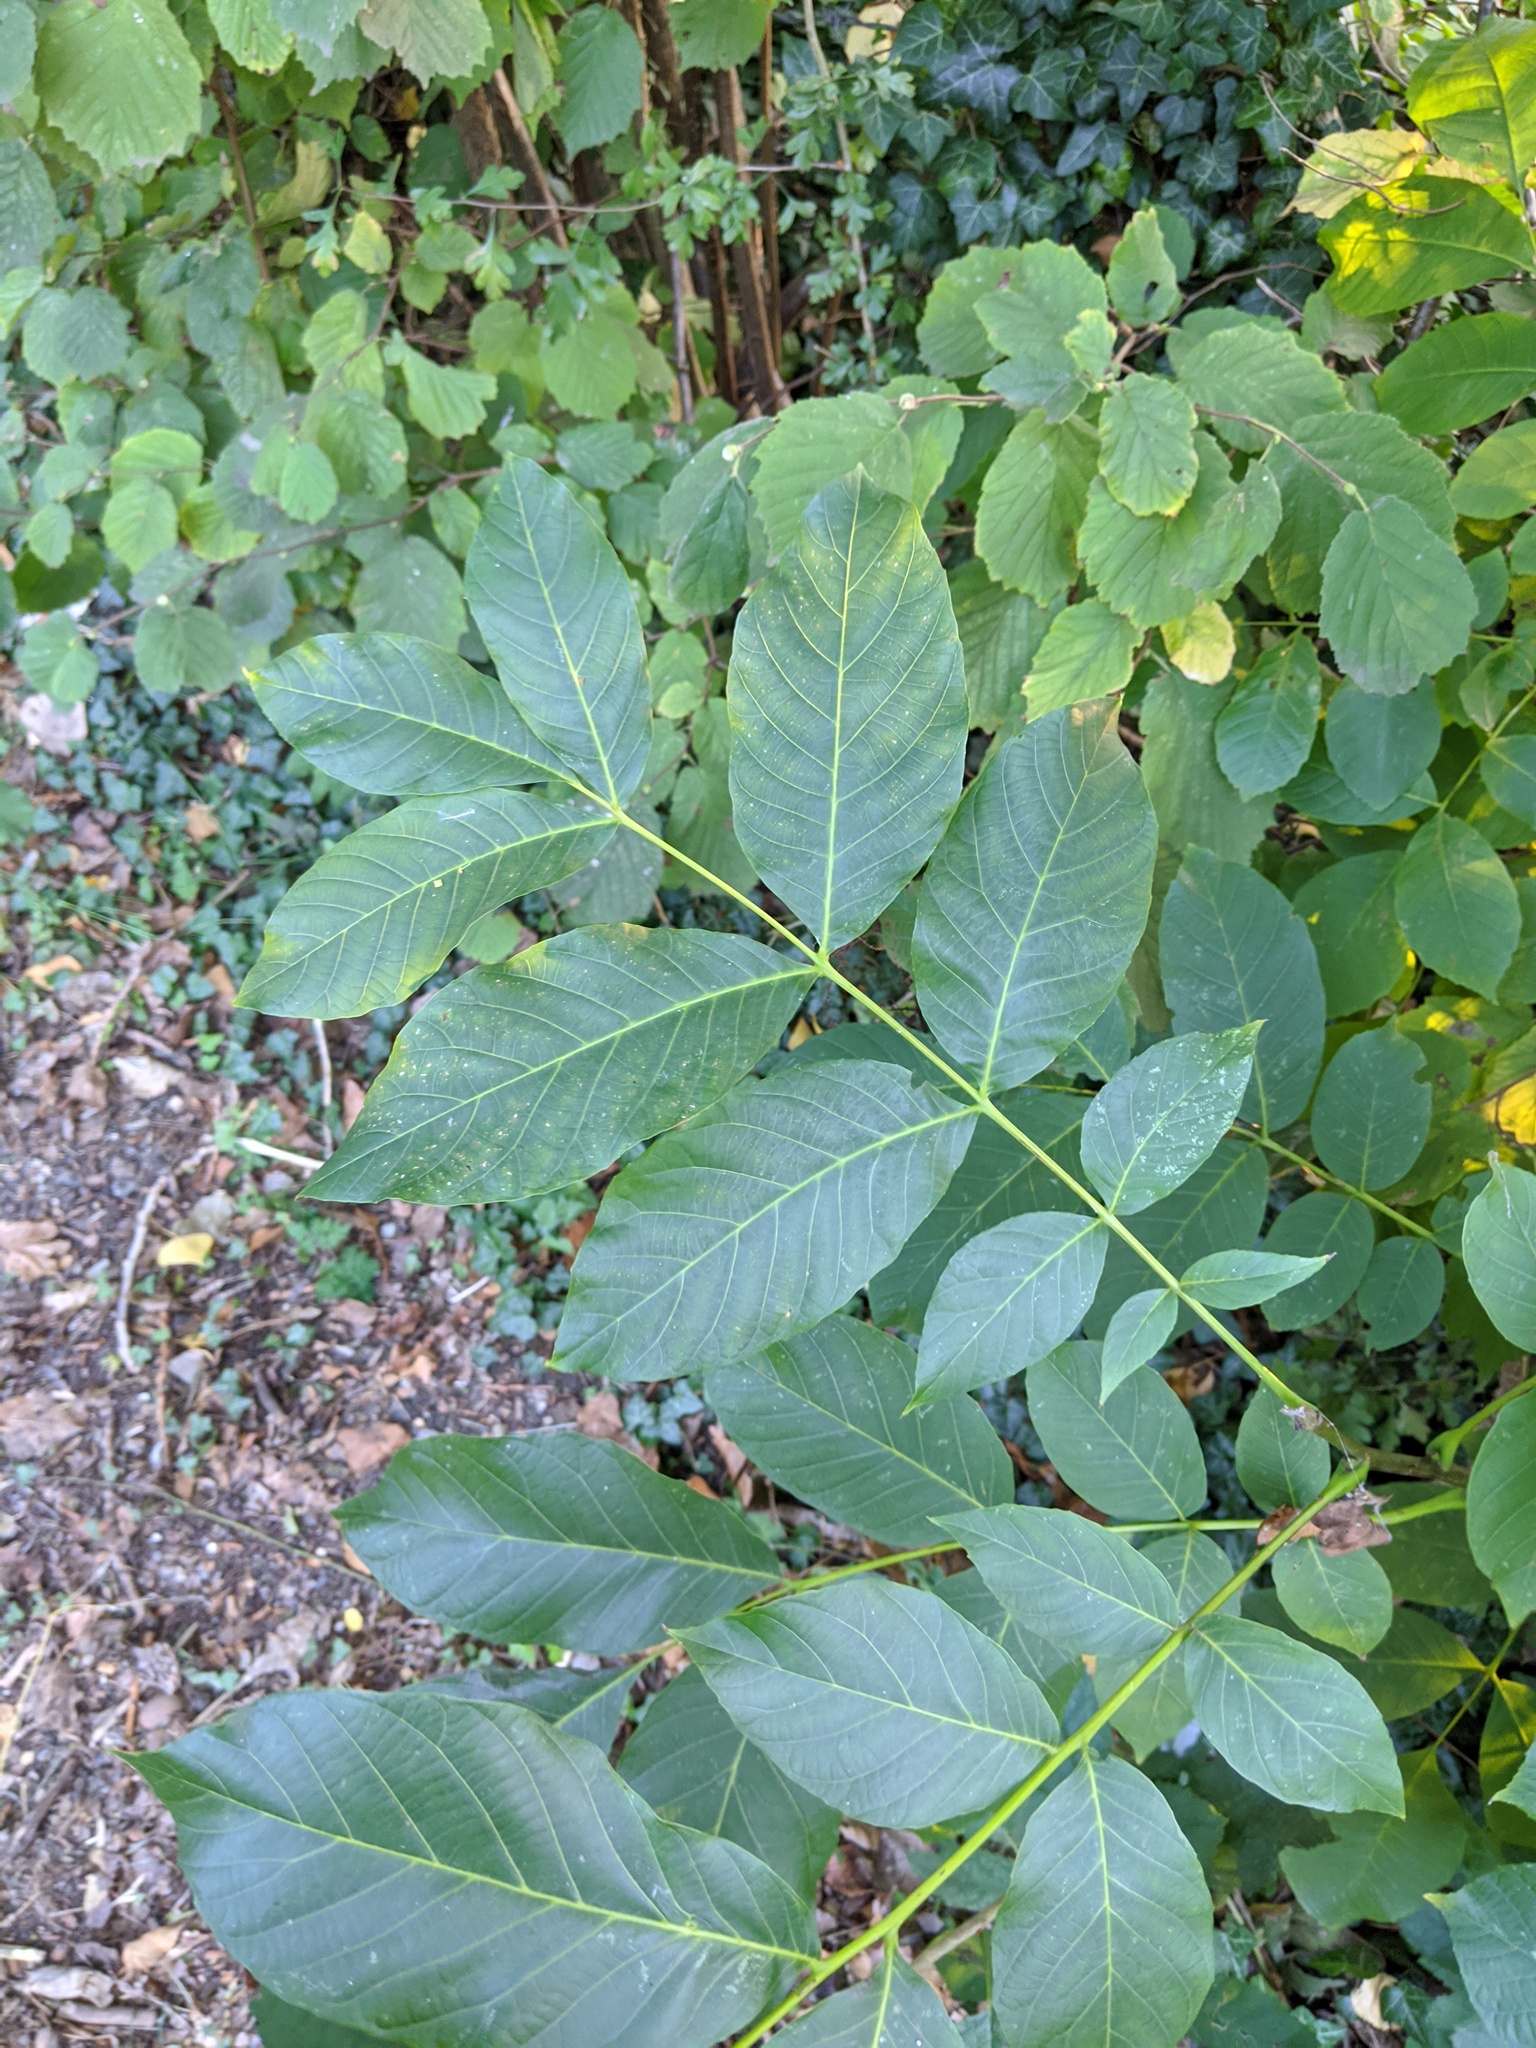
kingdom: Plantae
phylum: Tracheophyta
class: Magnoliopsida
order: Fagales
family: Juglandaceae
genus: Juglans
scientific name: Juglans regia
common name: Walnut
